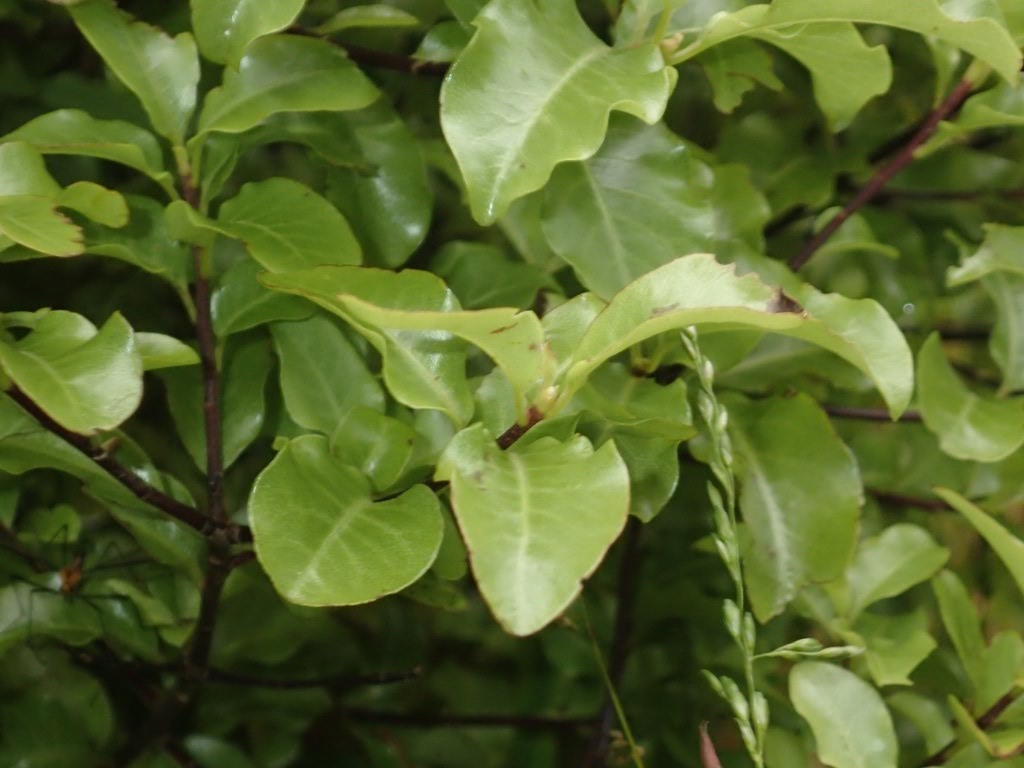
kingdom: Plantae
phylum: Tracheophyta
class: Magnoliopsida
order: Apiales
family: Pittosporaceae
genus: Pittosporum
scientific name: Pittosporum tenuifolium
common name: Kohuhu
